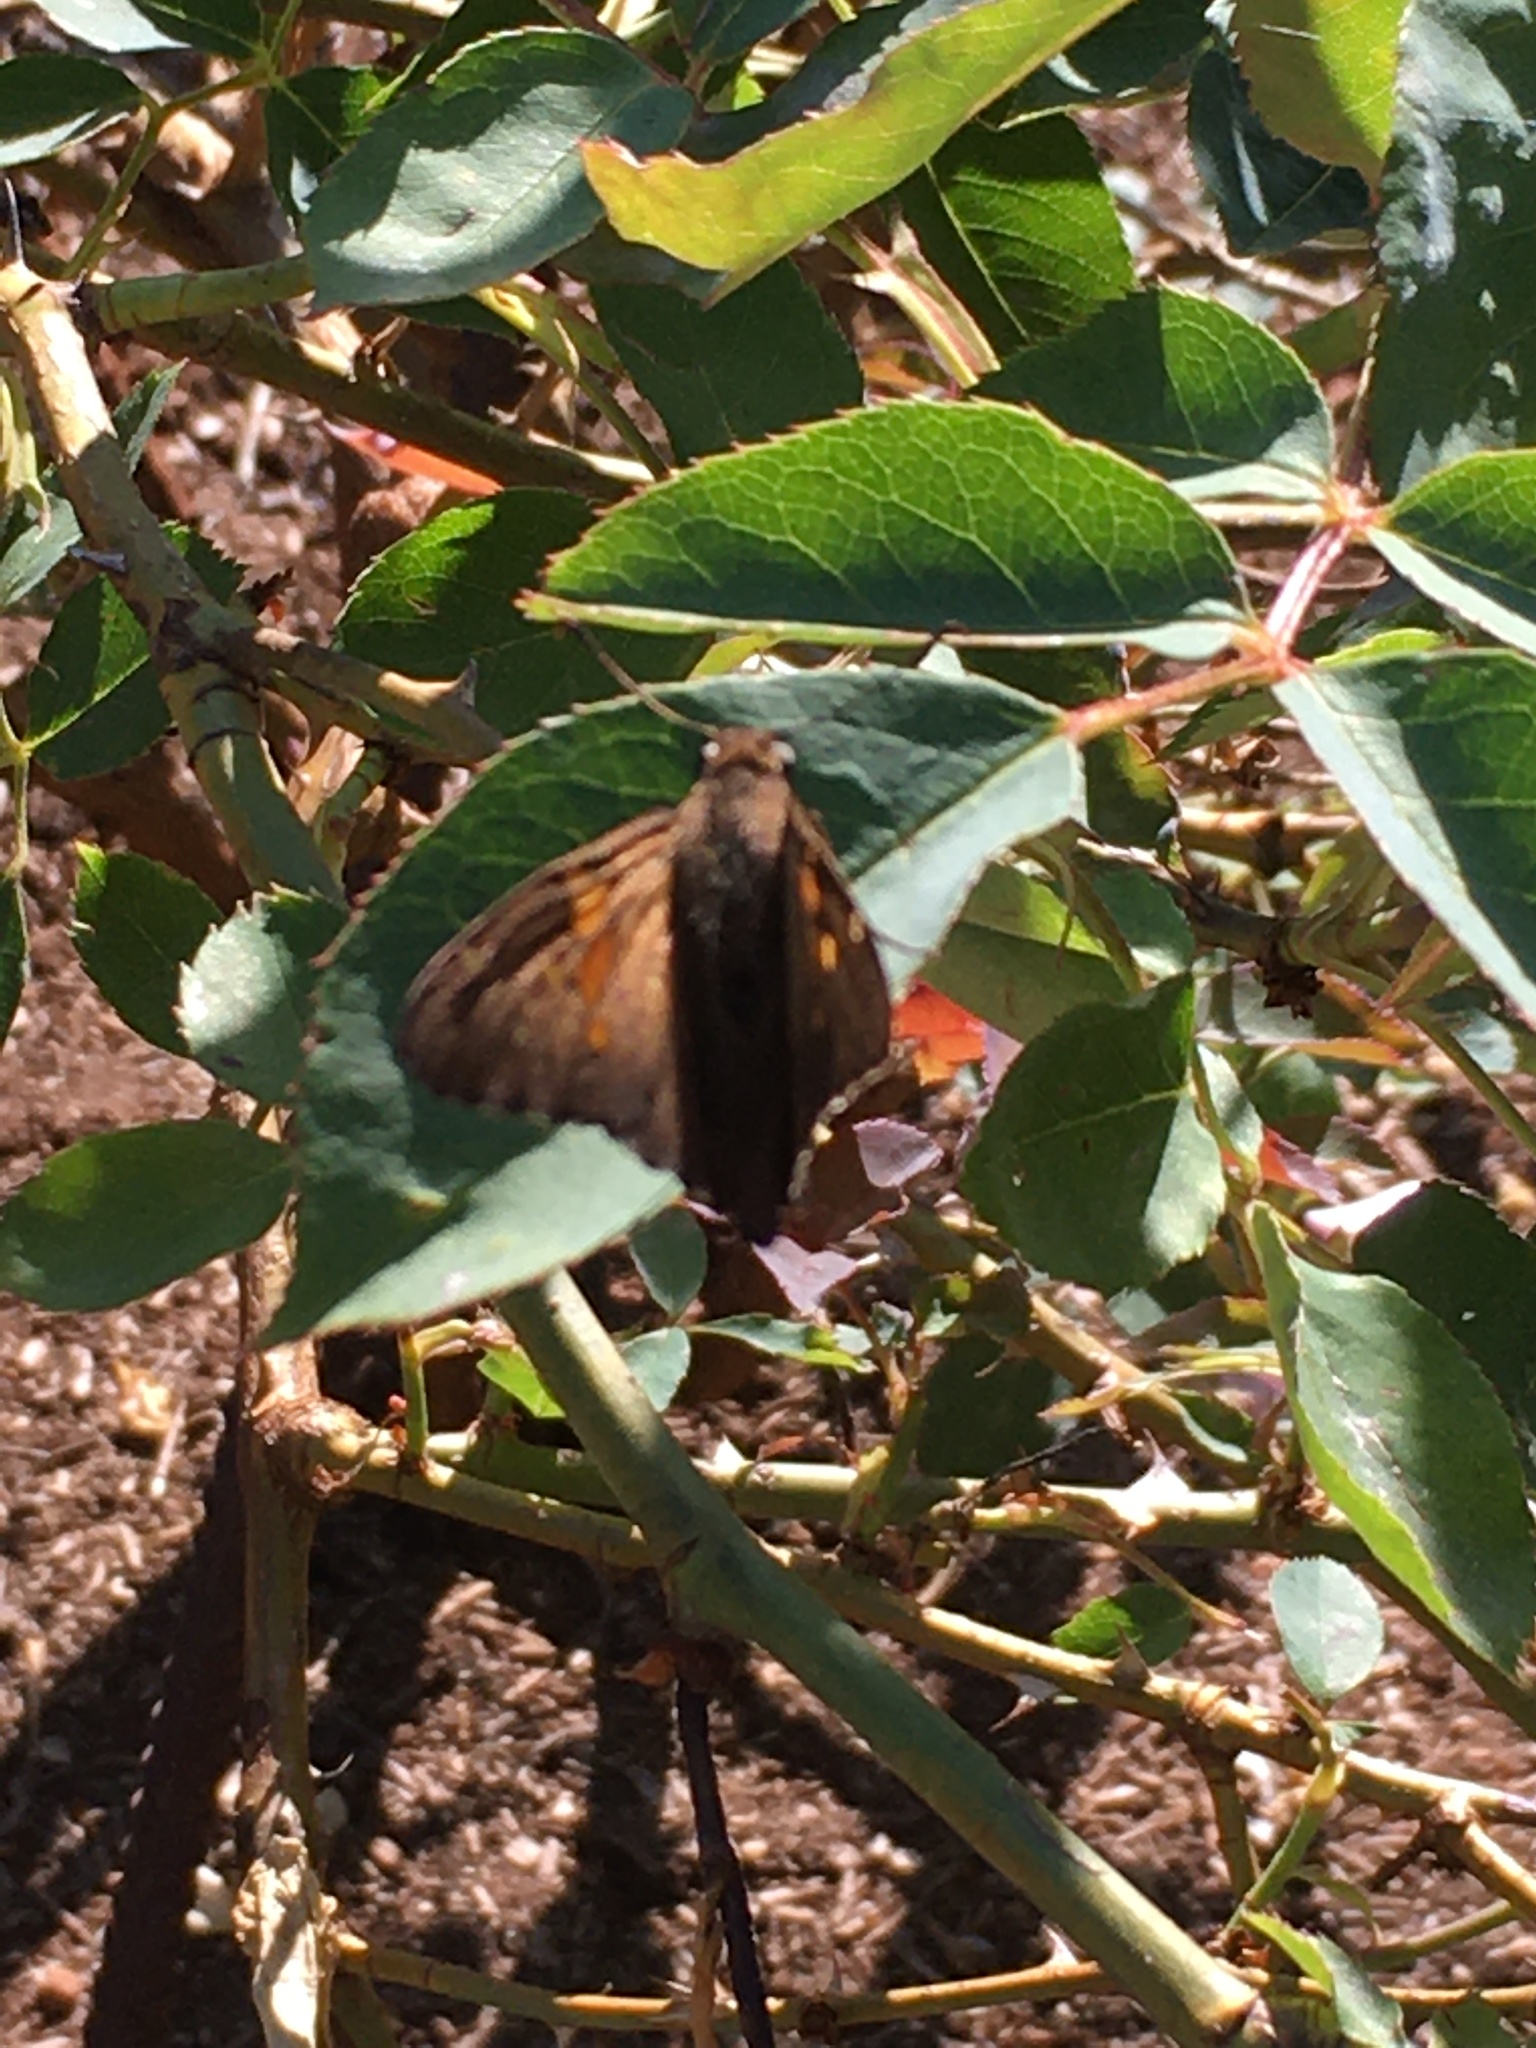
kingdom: Animalia
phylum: Arthropoda
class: Insecta
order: Lepidoptera
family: Hesperiidae
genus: Epargyreus
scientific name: Epargyreus clarus
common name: Silver-spotted skipper
